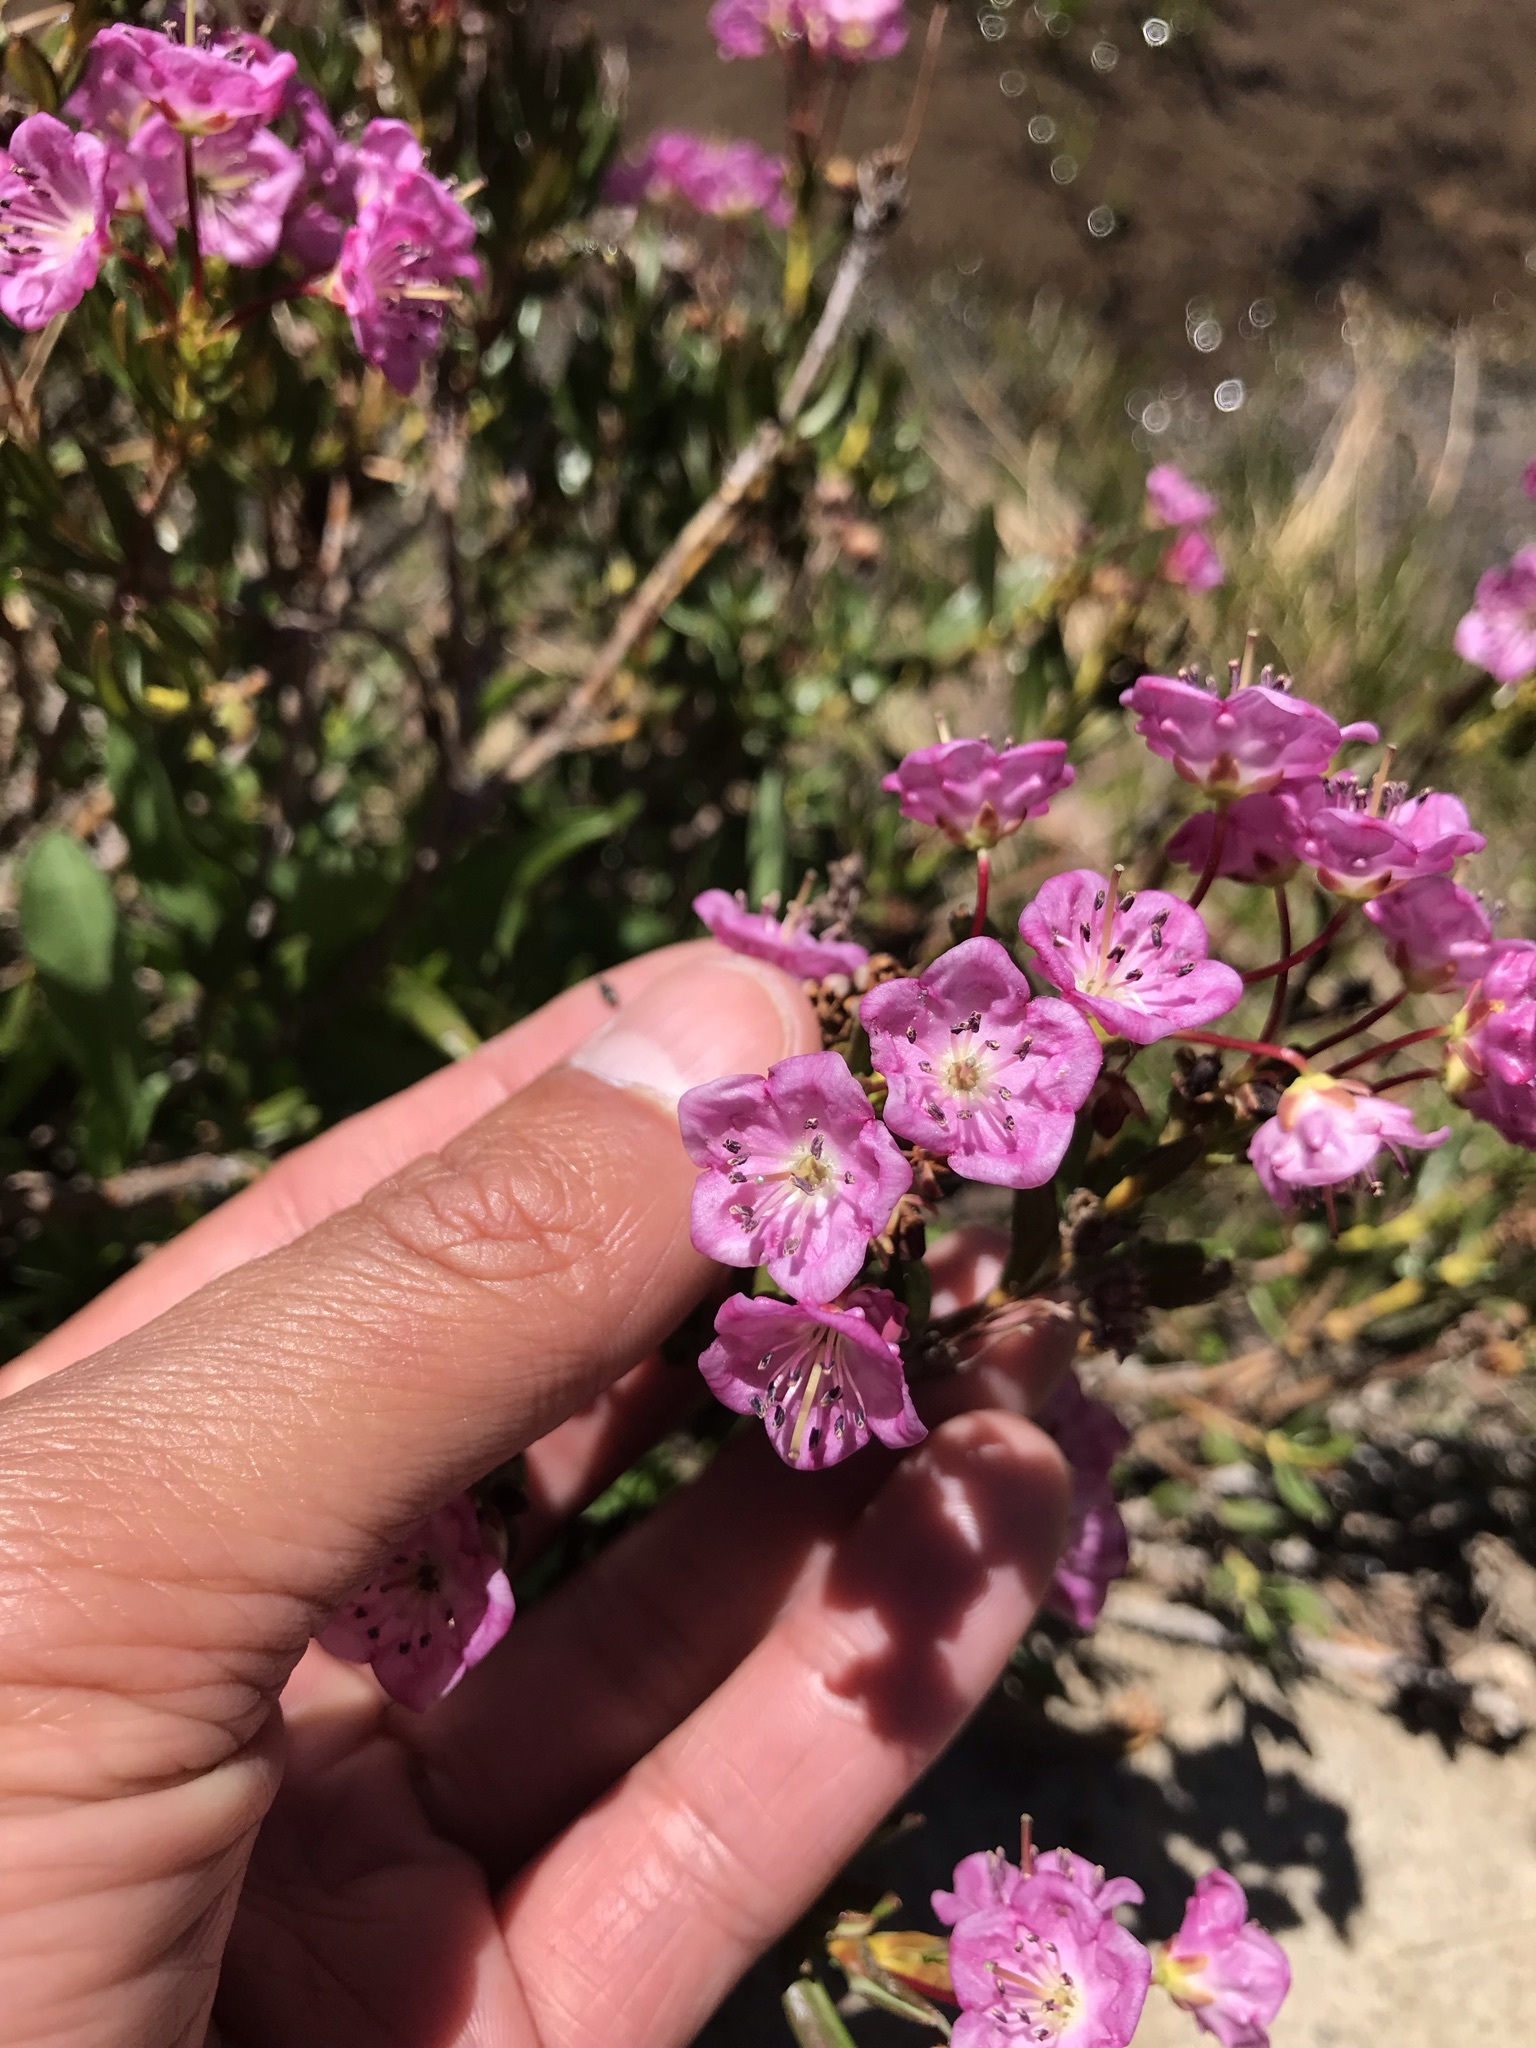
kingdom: Plantae
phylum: Tracheophyta
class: Magnoliopsida
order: Ericales
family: Ericaceae
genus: Kalmia
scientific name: Kalmia microphylla
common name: Alpine bog laurel
